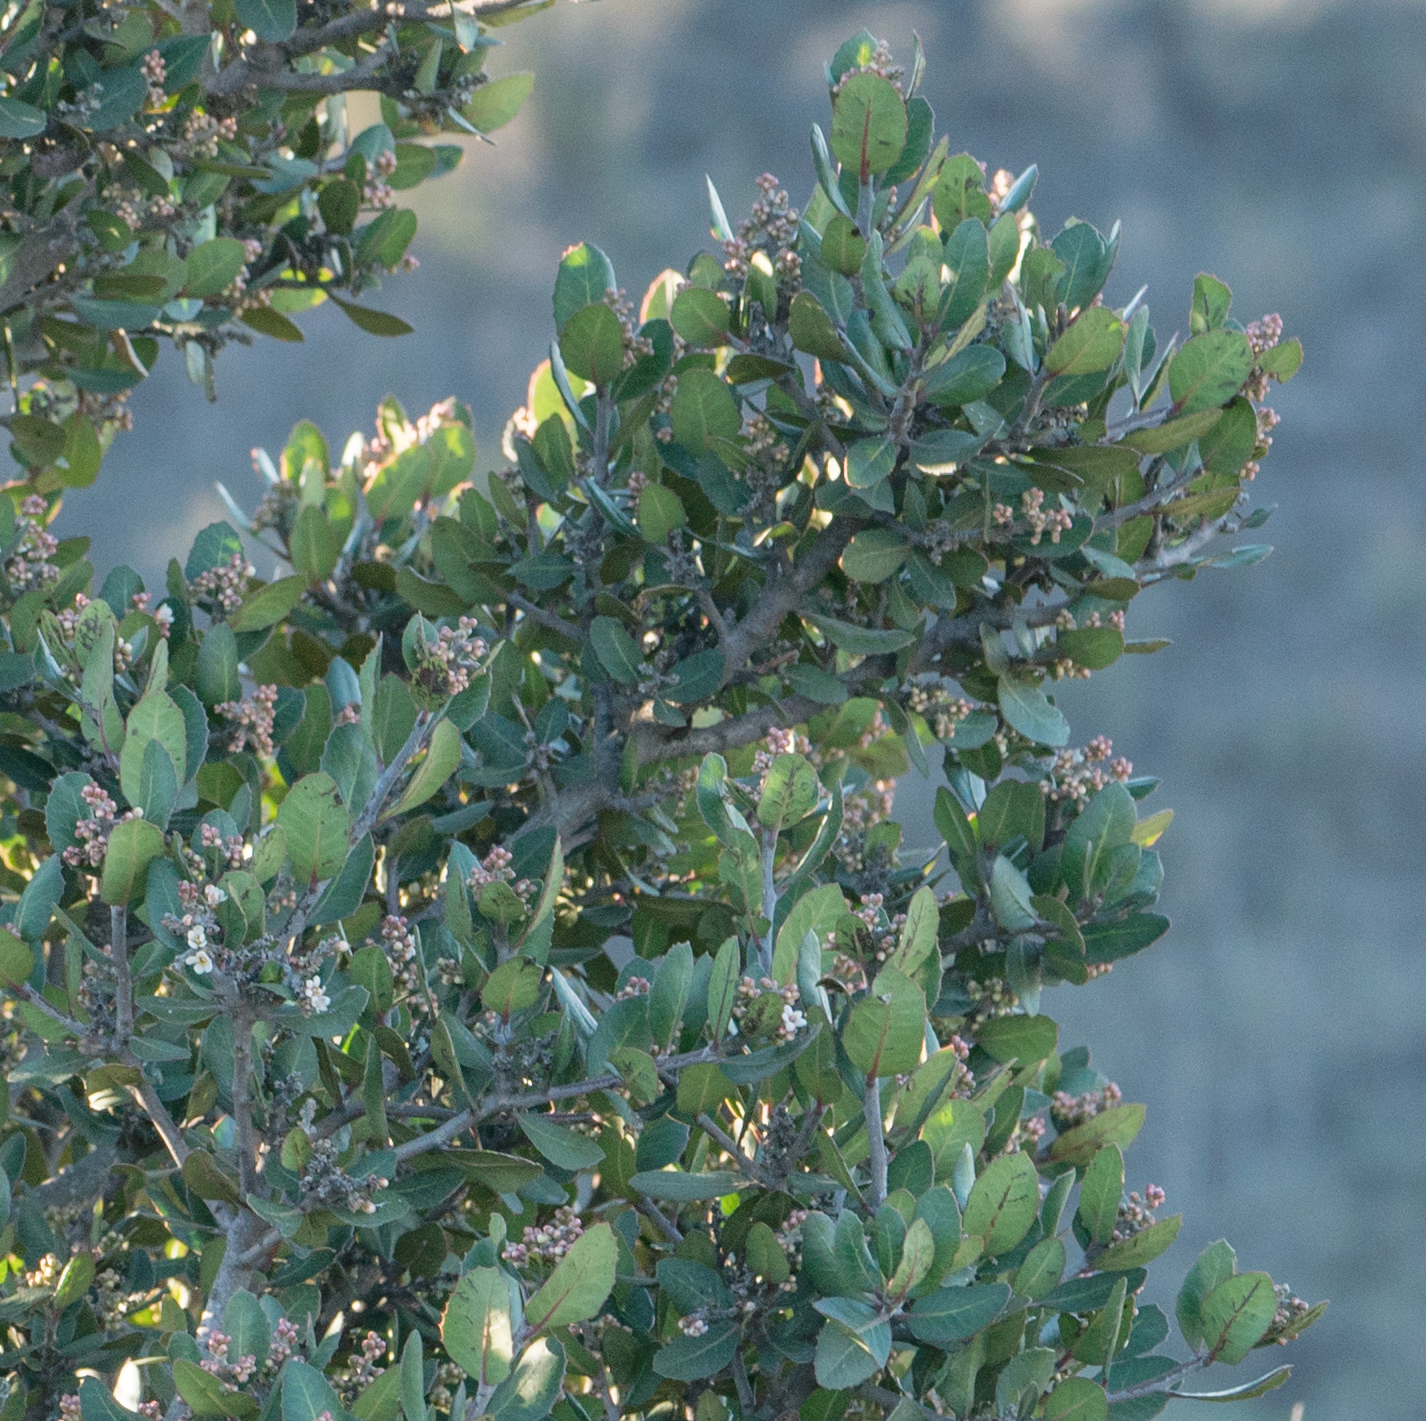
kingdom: Plantae
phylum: Tracheophyta
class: Magnoliopsida
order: Sapindales
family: Anacardiaceae
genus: Rhus
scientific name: Rhus integrifolia
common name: Lemonade sumac
